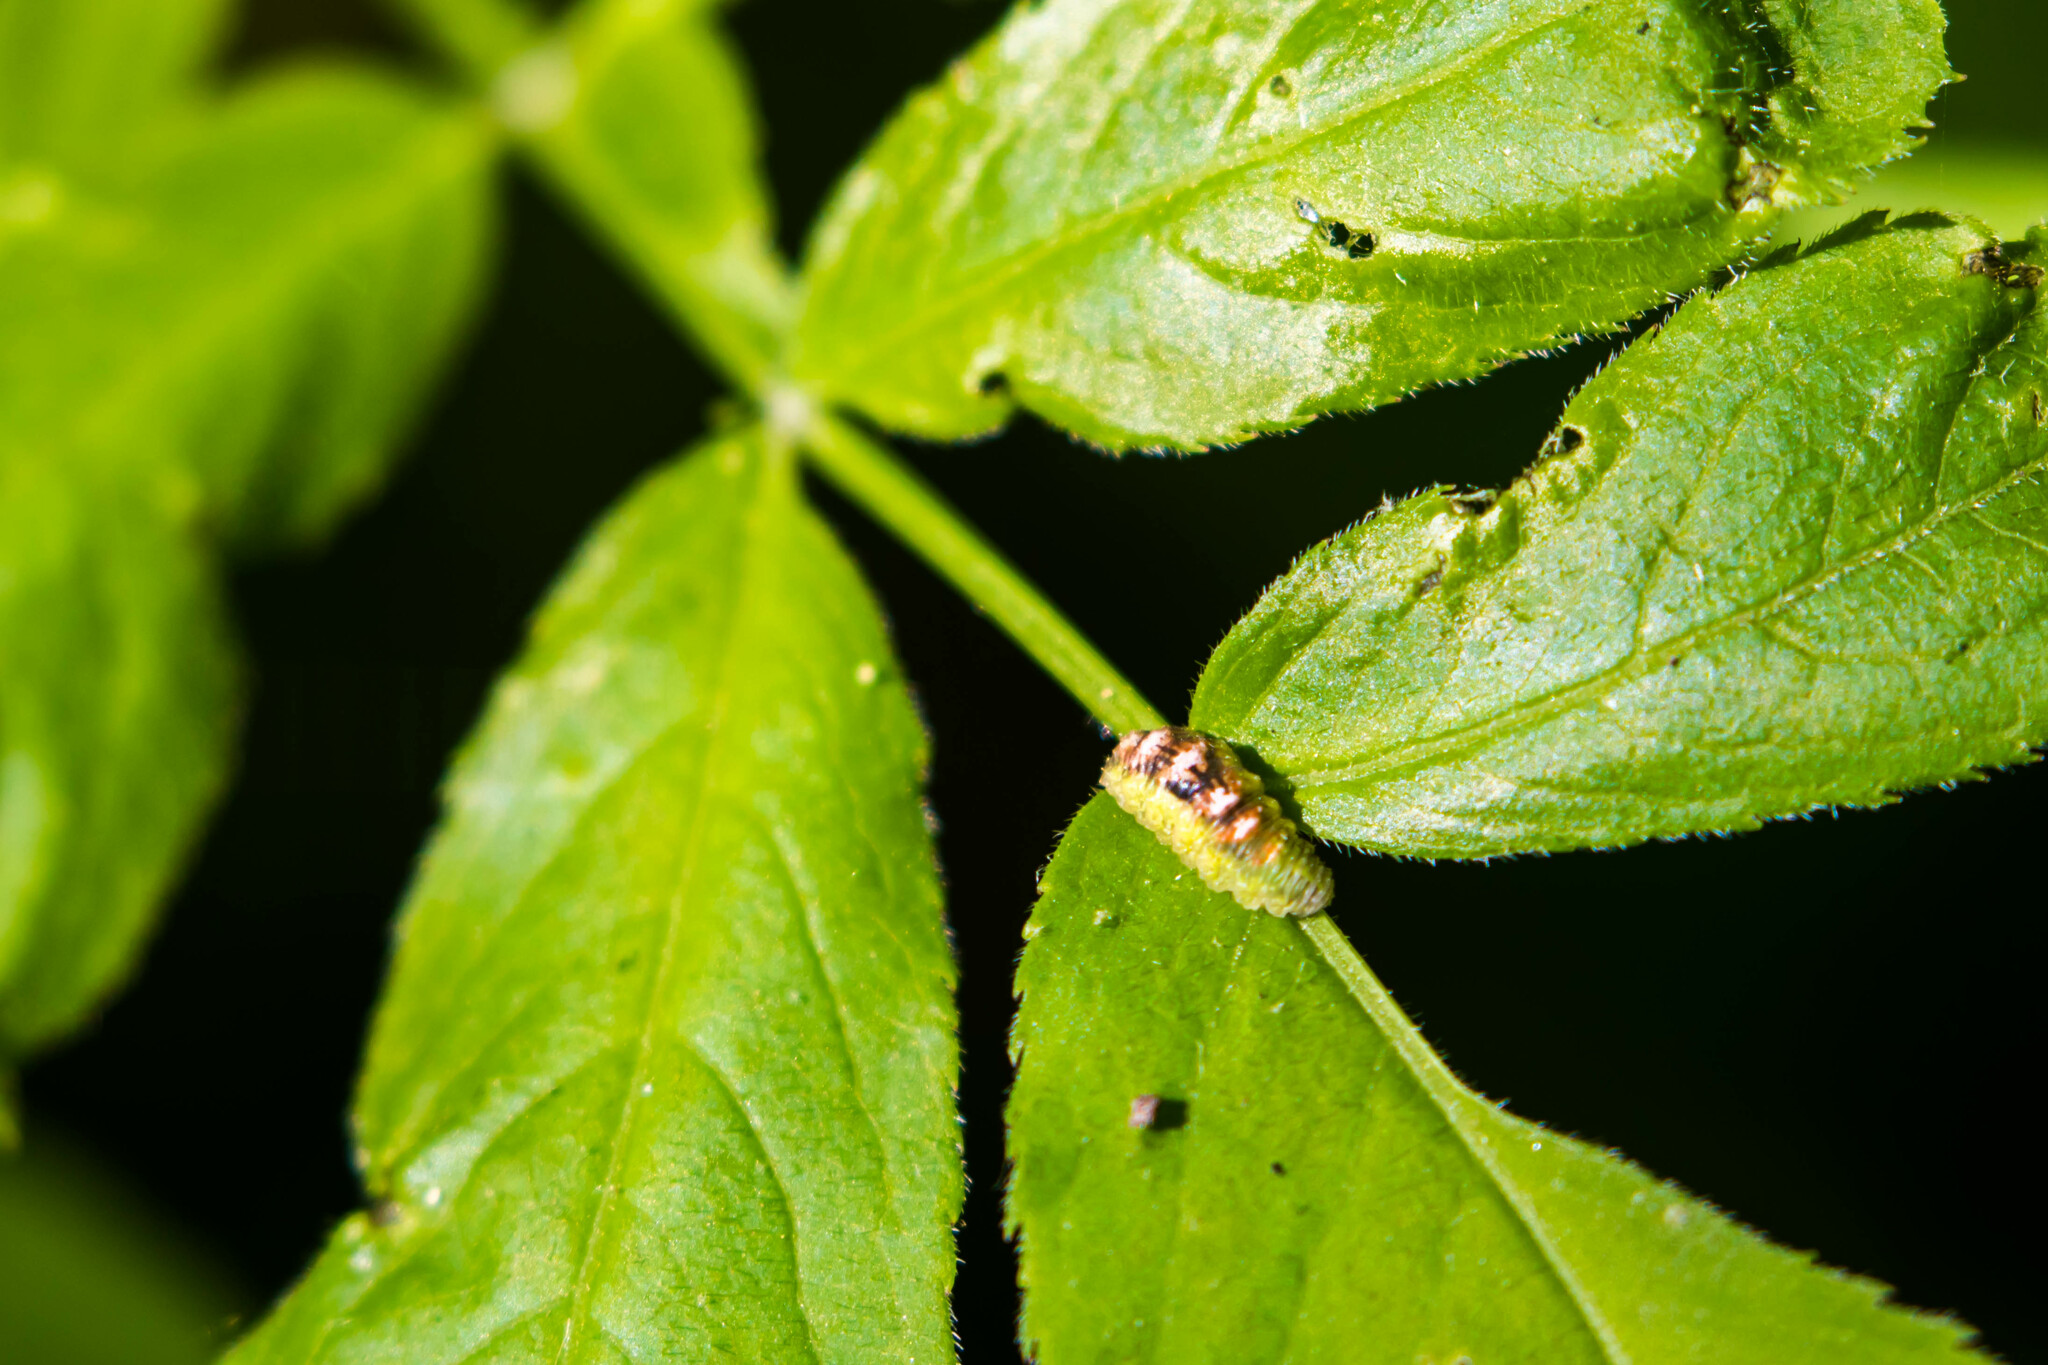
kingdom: Animalia
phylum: Arthropoda
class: Insecta
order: Diptera
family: Syrphidae
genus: Eupeodes
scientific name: Eupeodes pomus
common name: Short-tailed aphideater
